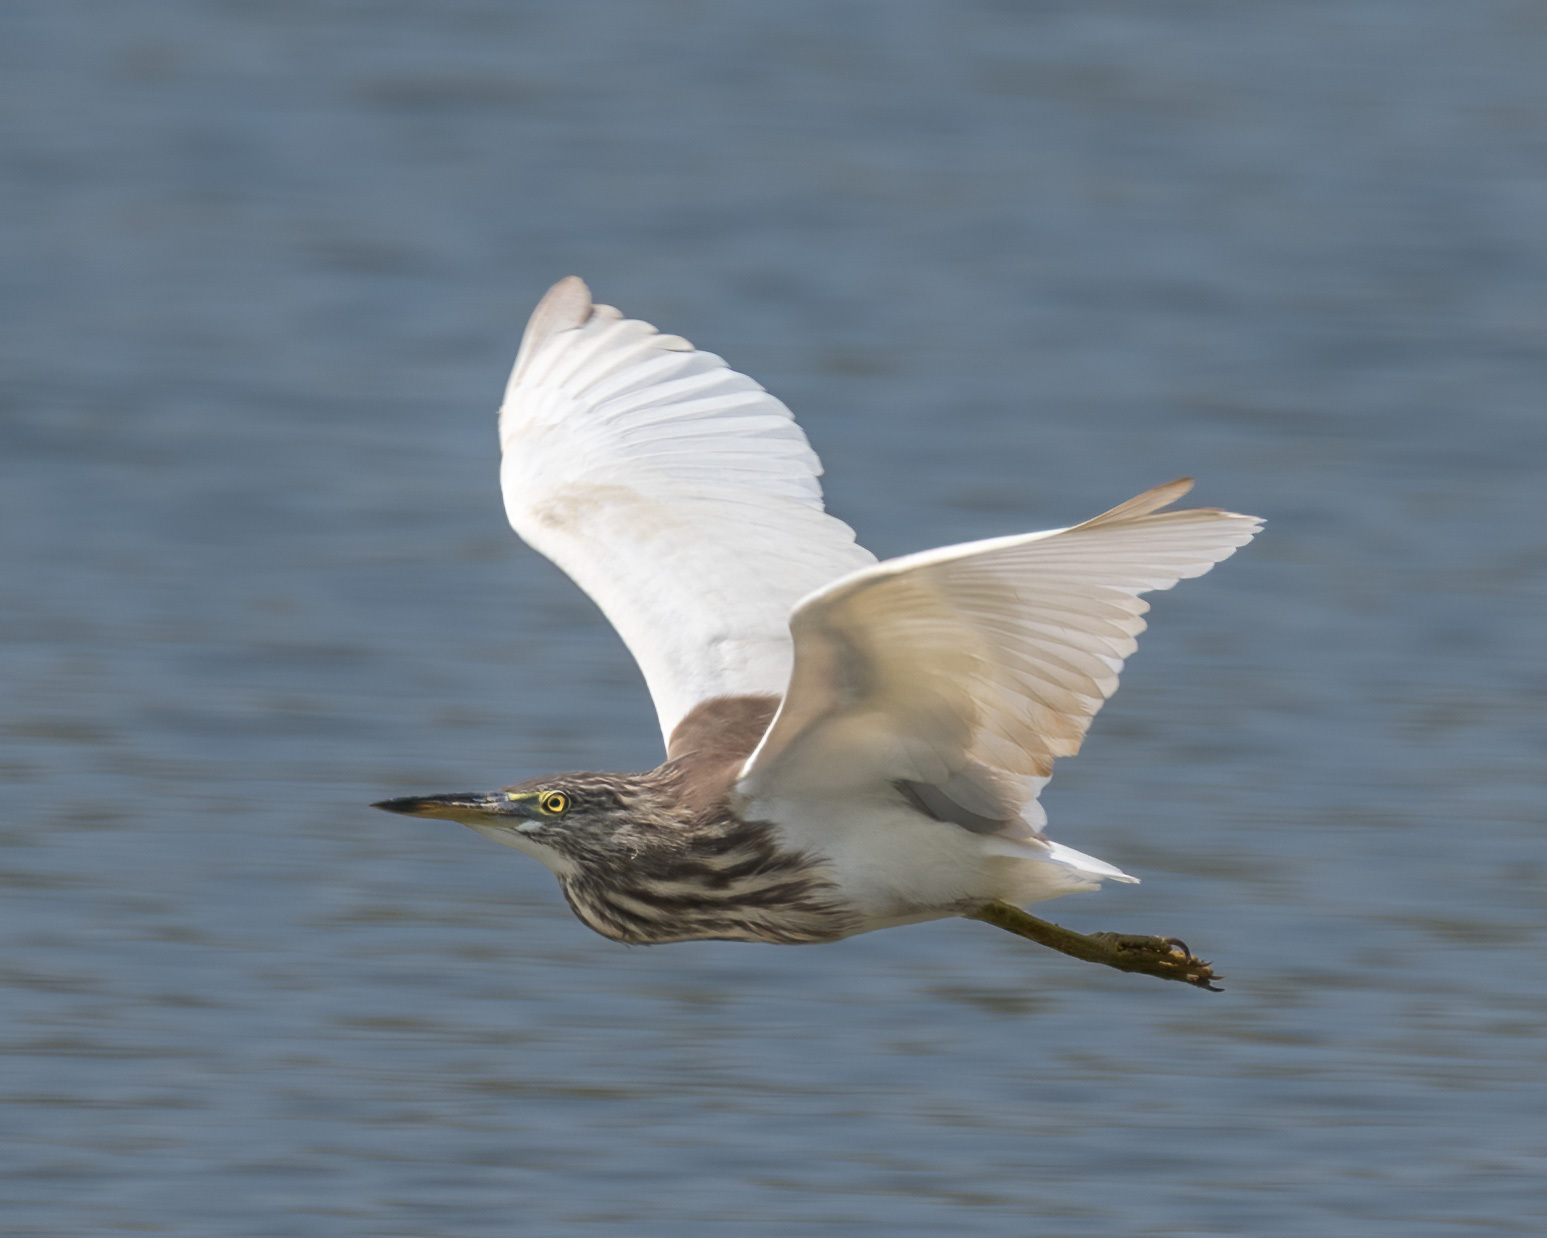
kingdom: Animalia
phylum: Chordata
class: Aves
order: Pelecaniformes
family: Ardeidae
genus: Ardeola
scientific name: Ardeola grayii
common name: Indian pond heron
